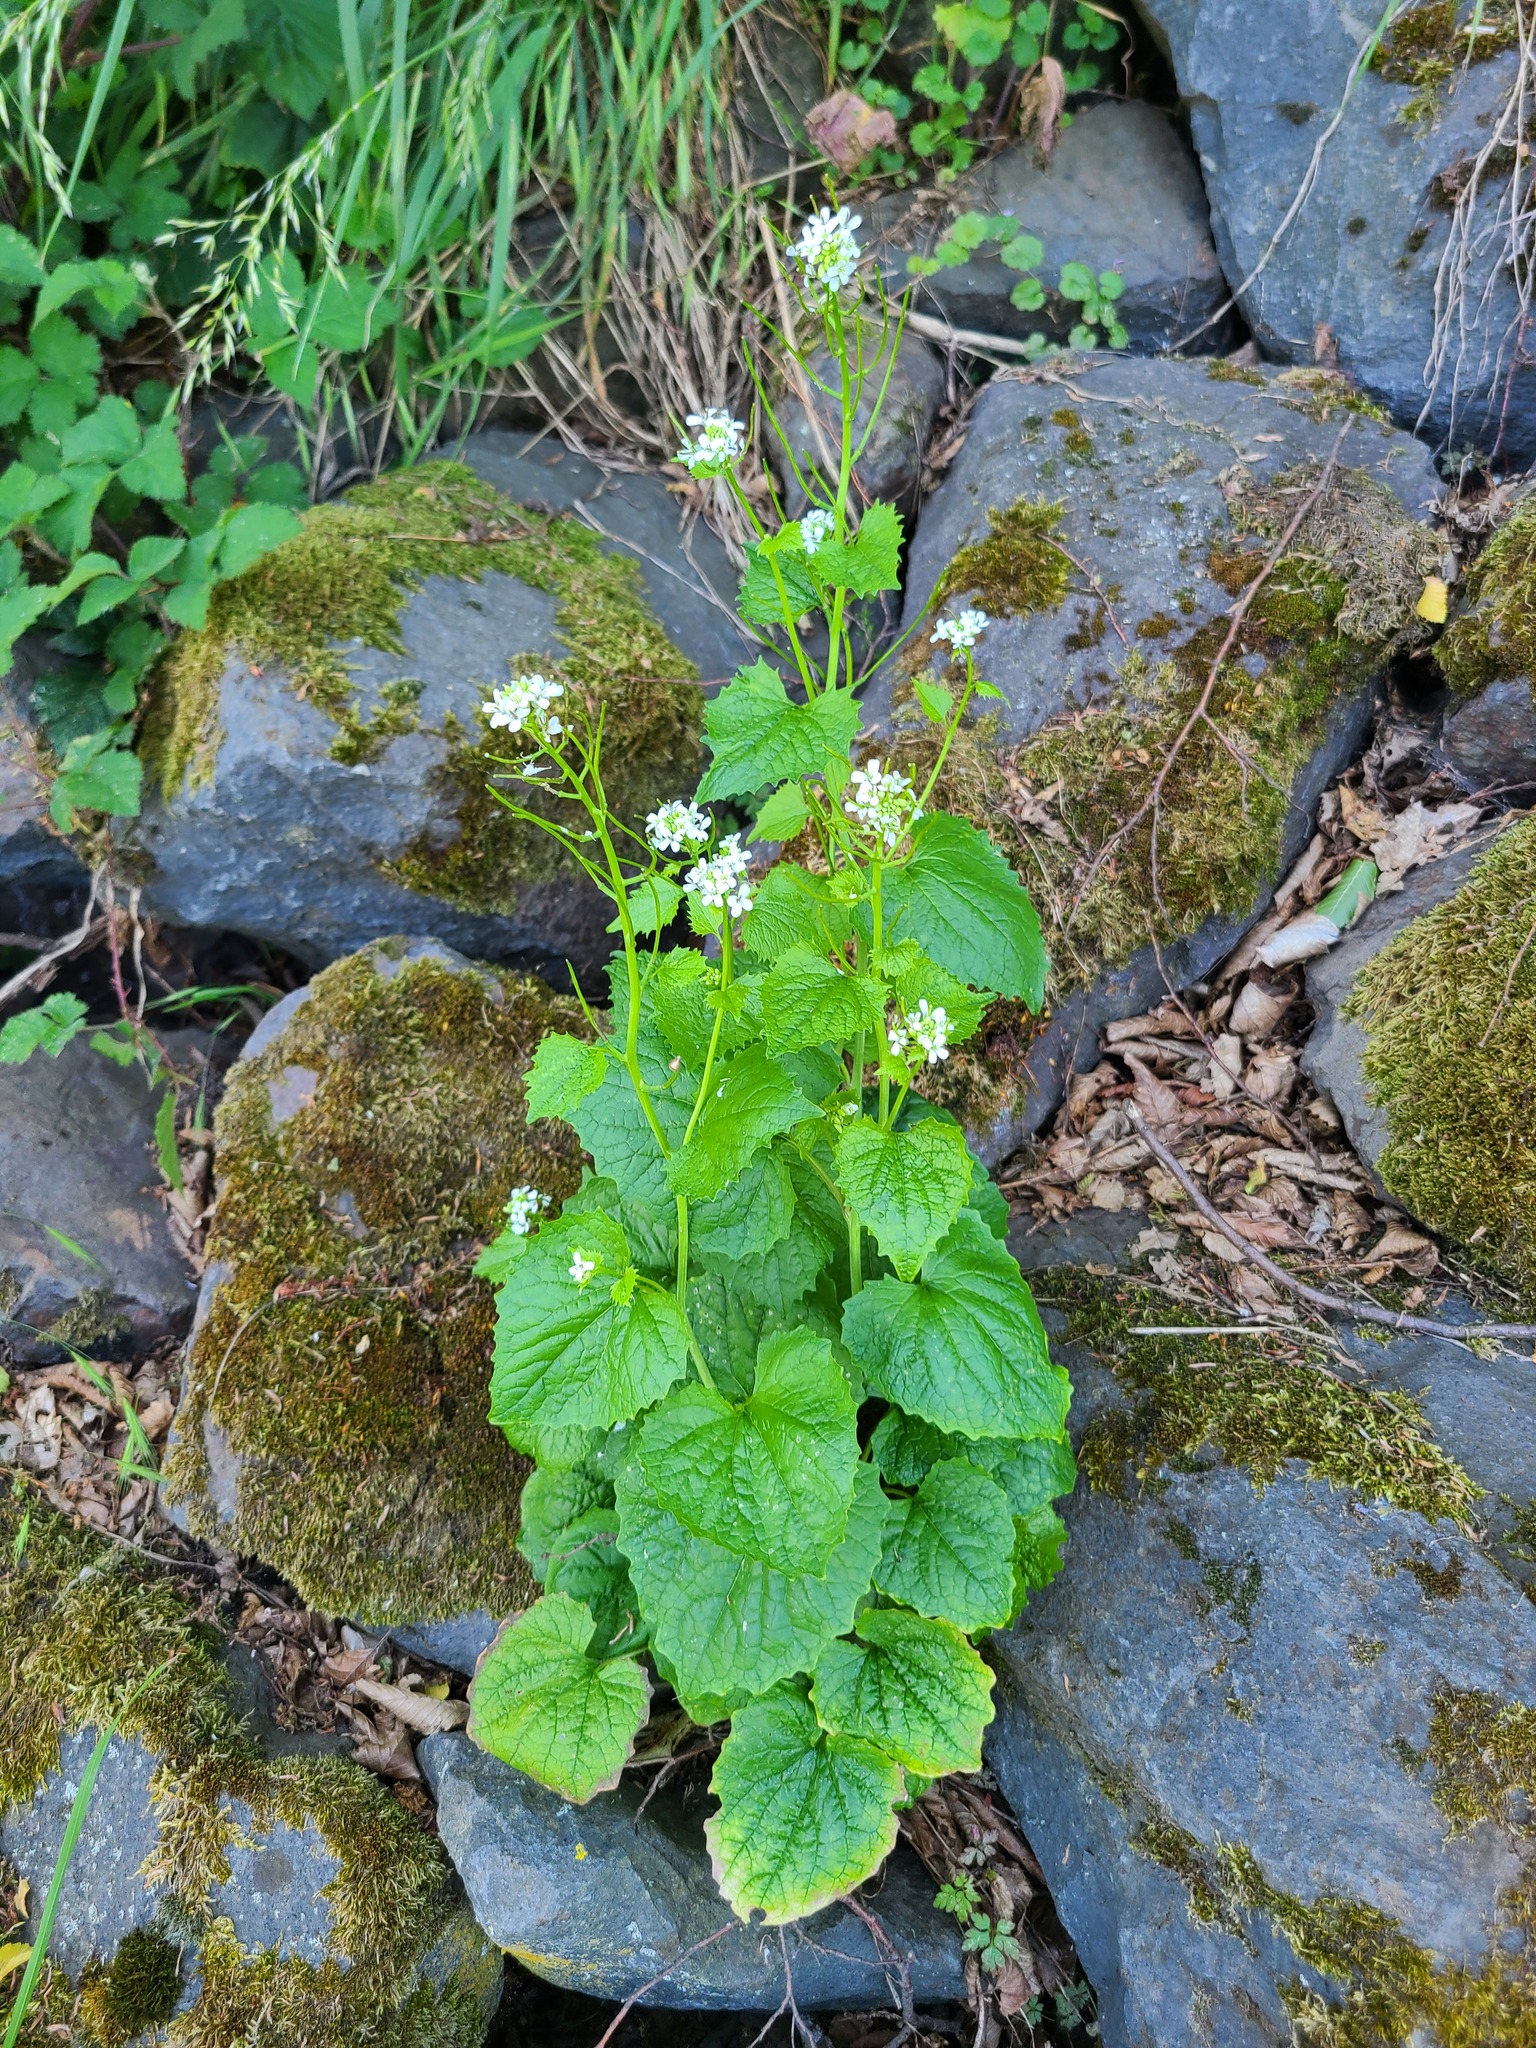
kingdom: Plantae
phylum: Tracheophyta
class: Magnoliopsida
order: Brassicales
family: Brassicaceae
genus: Alliaria
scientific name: Alliaria petiolata
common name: Garlic mustard
